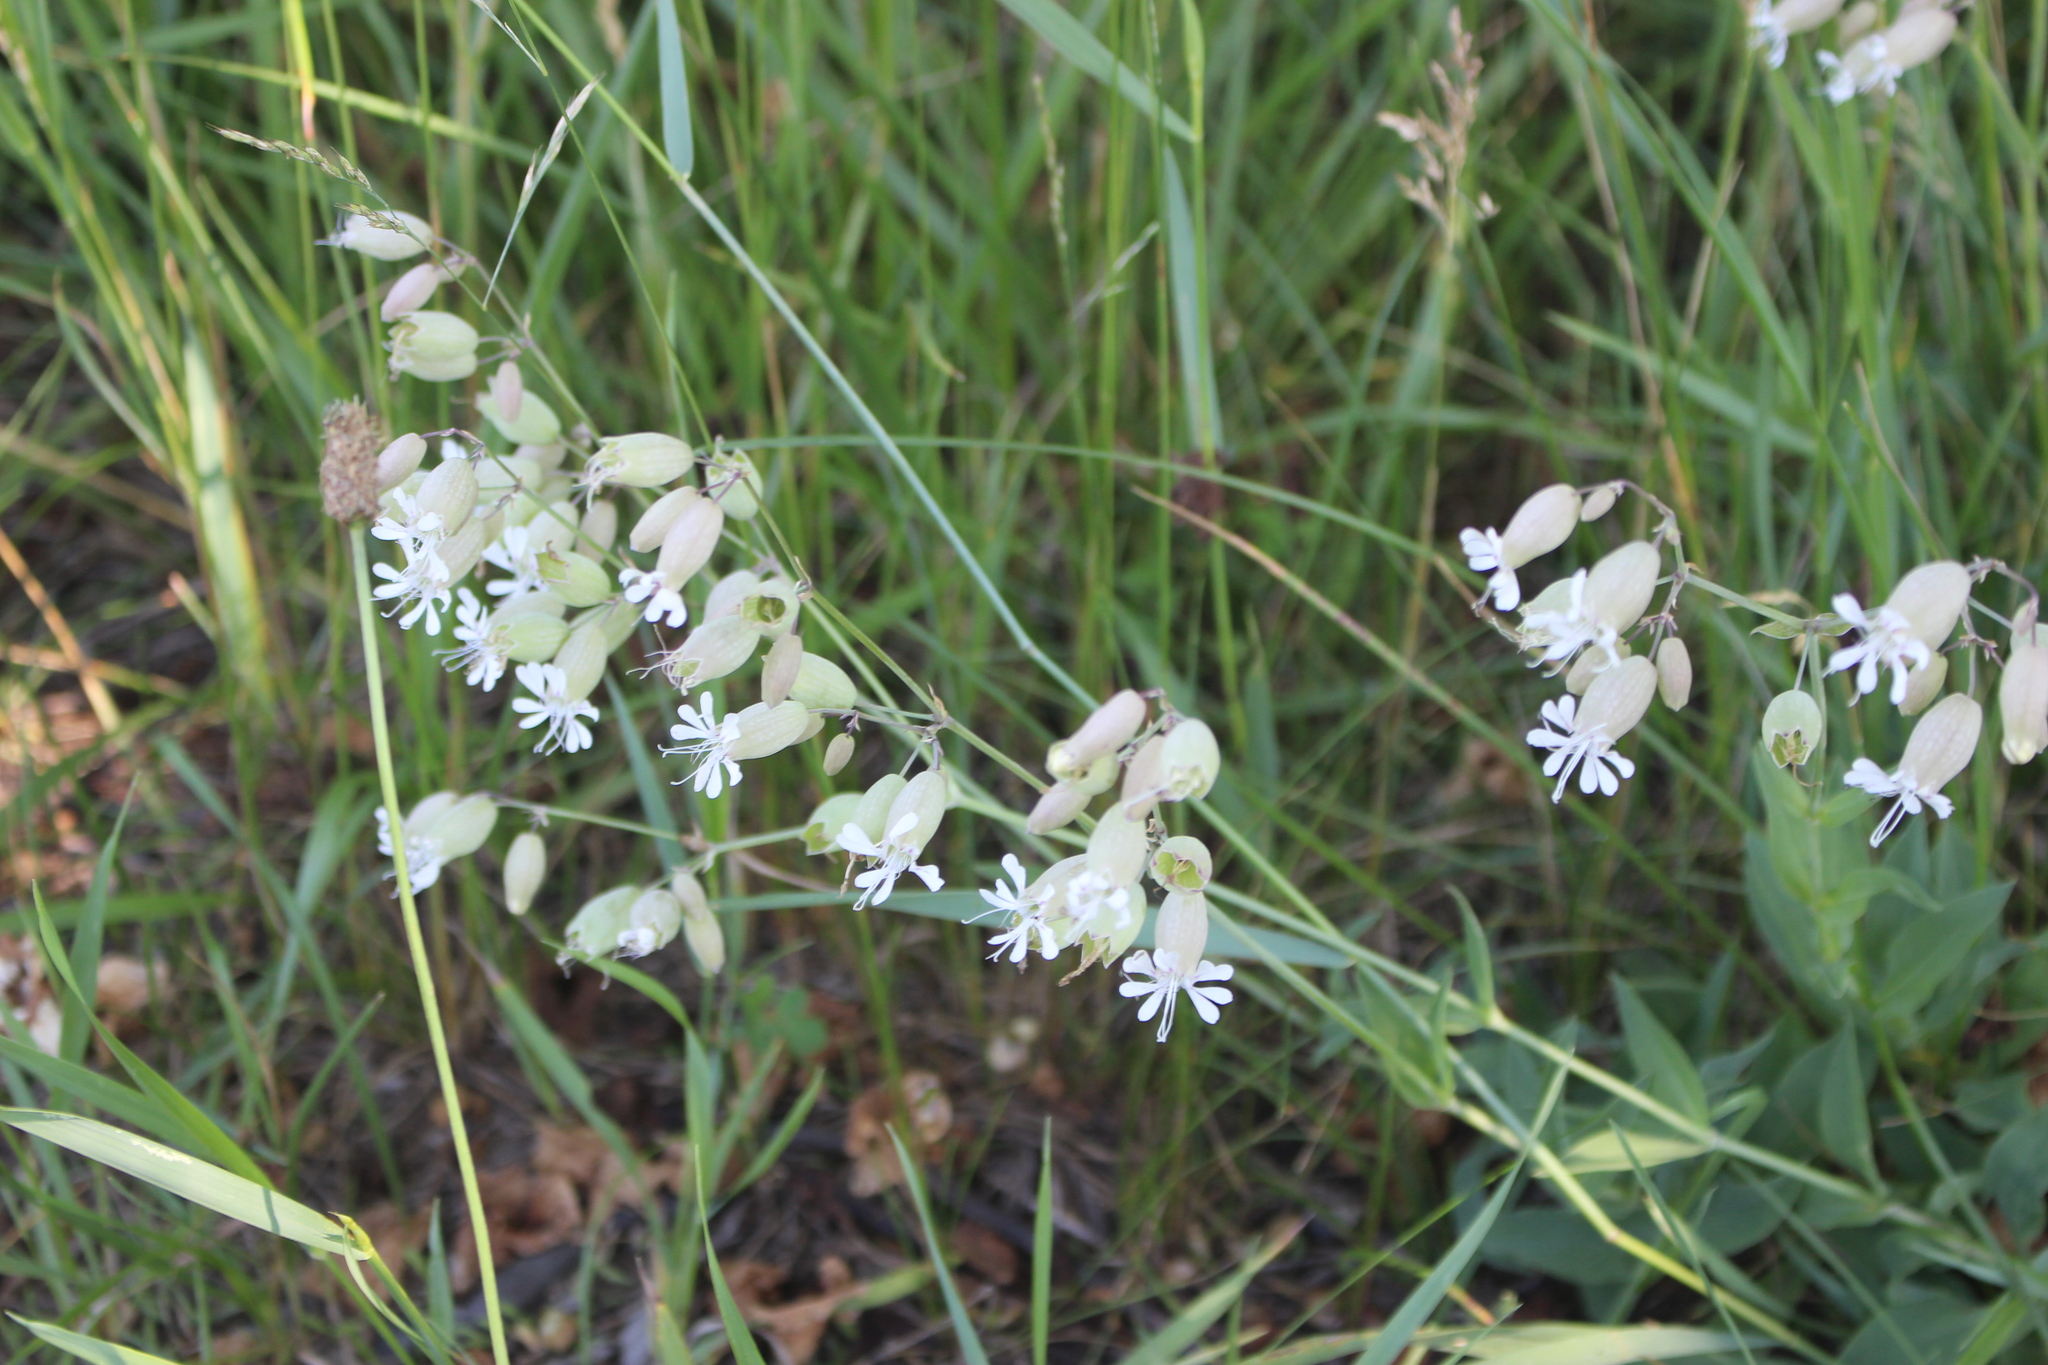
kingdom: Plantae
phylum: Tracheophyta
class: Magnoliopsida
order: Caryophyllales
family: Caryophyllaceae
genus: Silene
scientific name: Silene vulgaris
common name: Bladder campion
